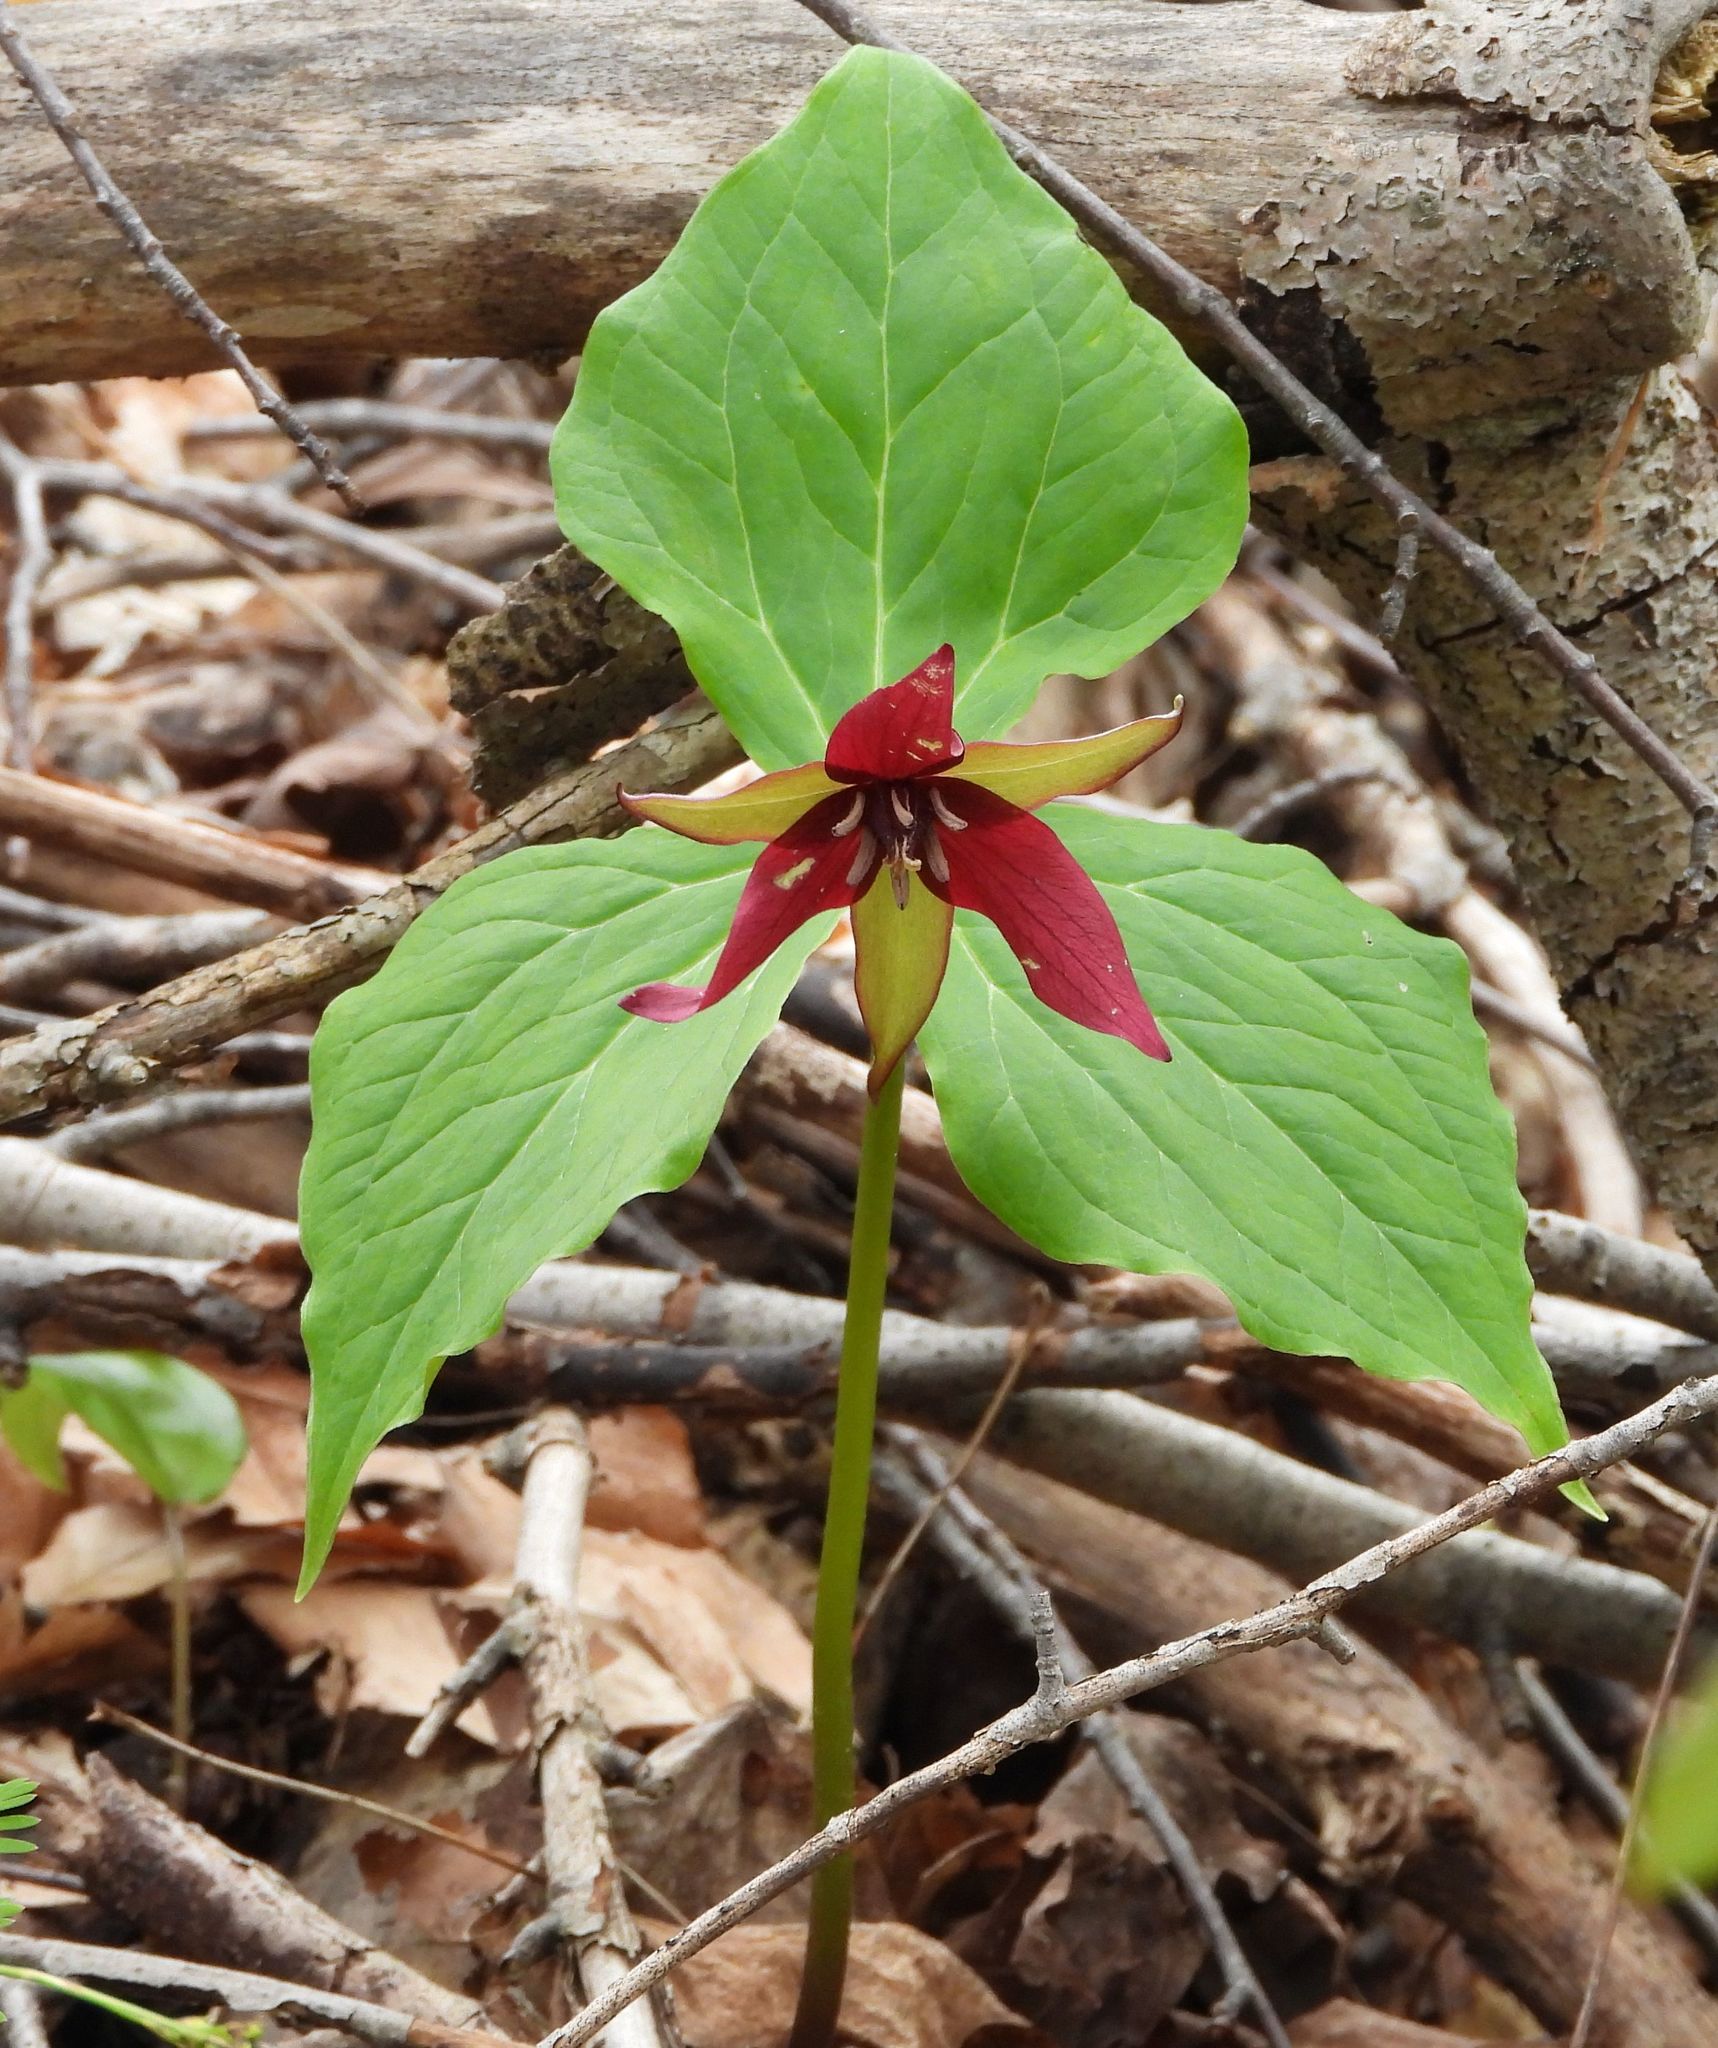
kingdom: Plantae
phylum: Tracheophyta
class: Liliopsida
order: Liliales
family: Melanthiaceae
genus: Trillium
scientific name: Trillium erectum
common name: Purple trillium
